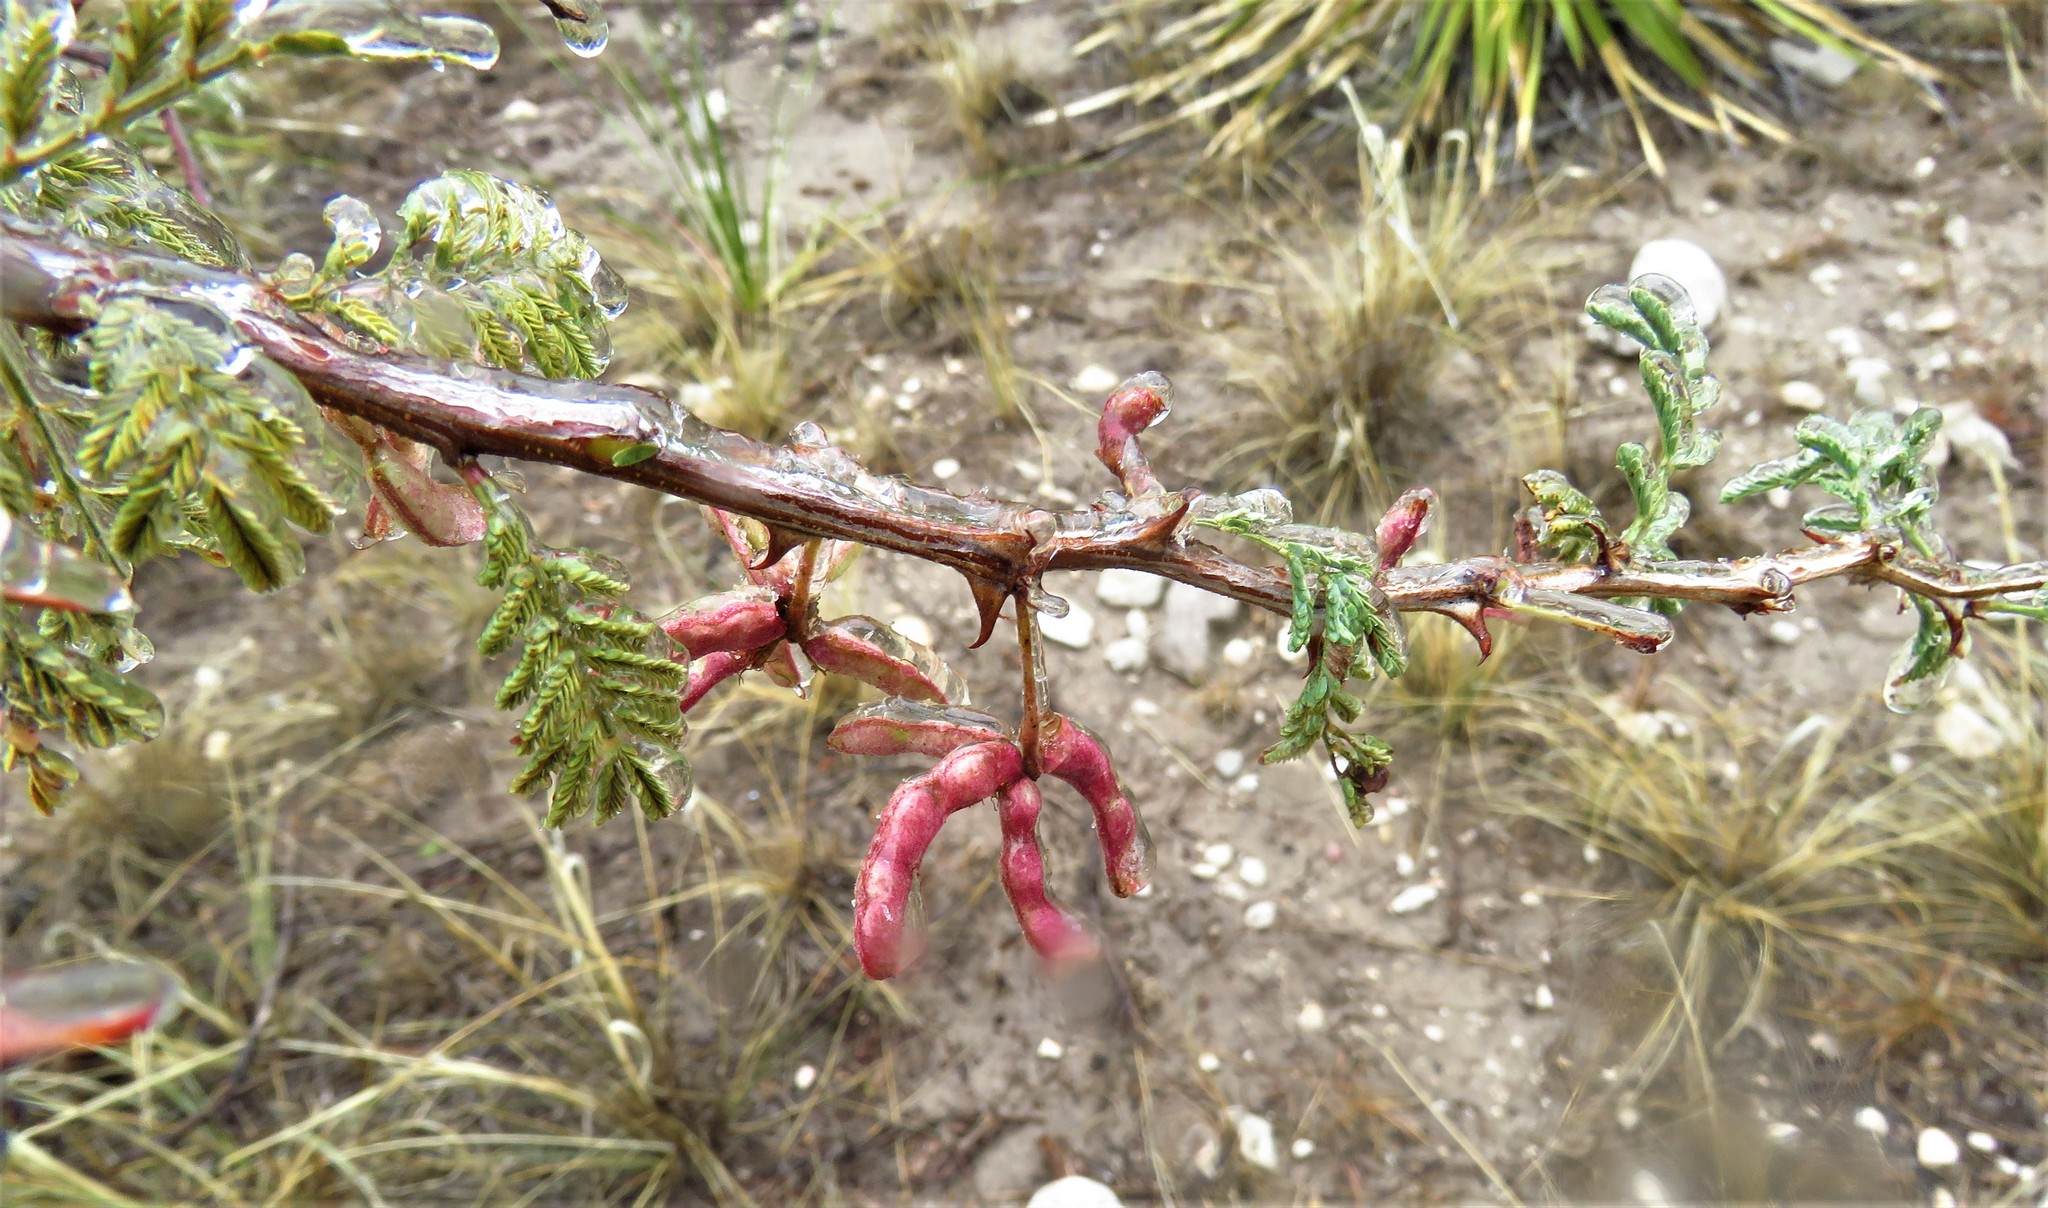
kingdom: Plantae
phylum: Tracheophyta
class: Magnoliopsida
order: Fabales
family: Fabaceae
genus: Mimosa
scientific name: Mimosa aculeaticarpa
